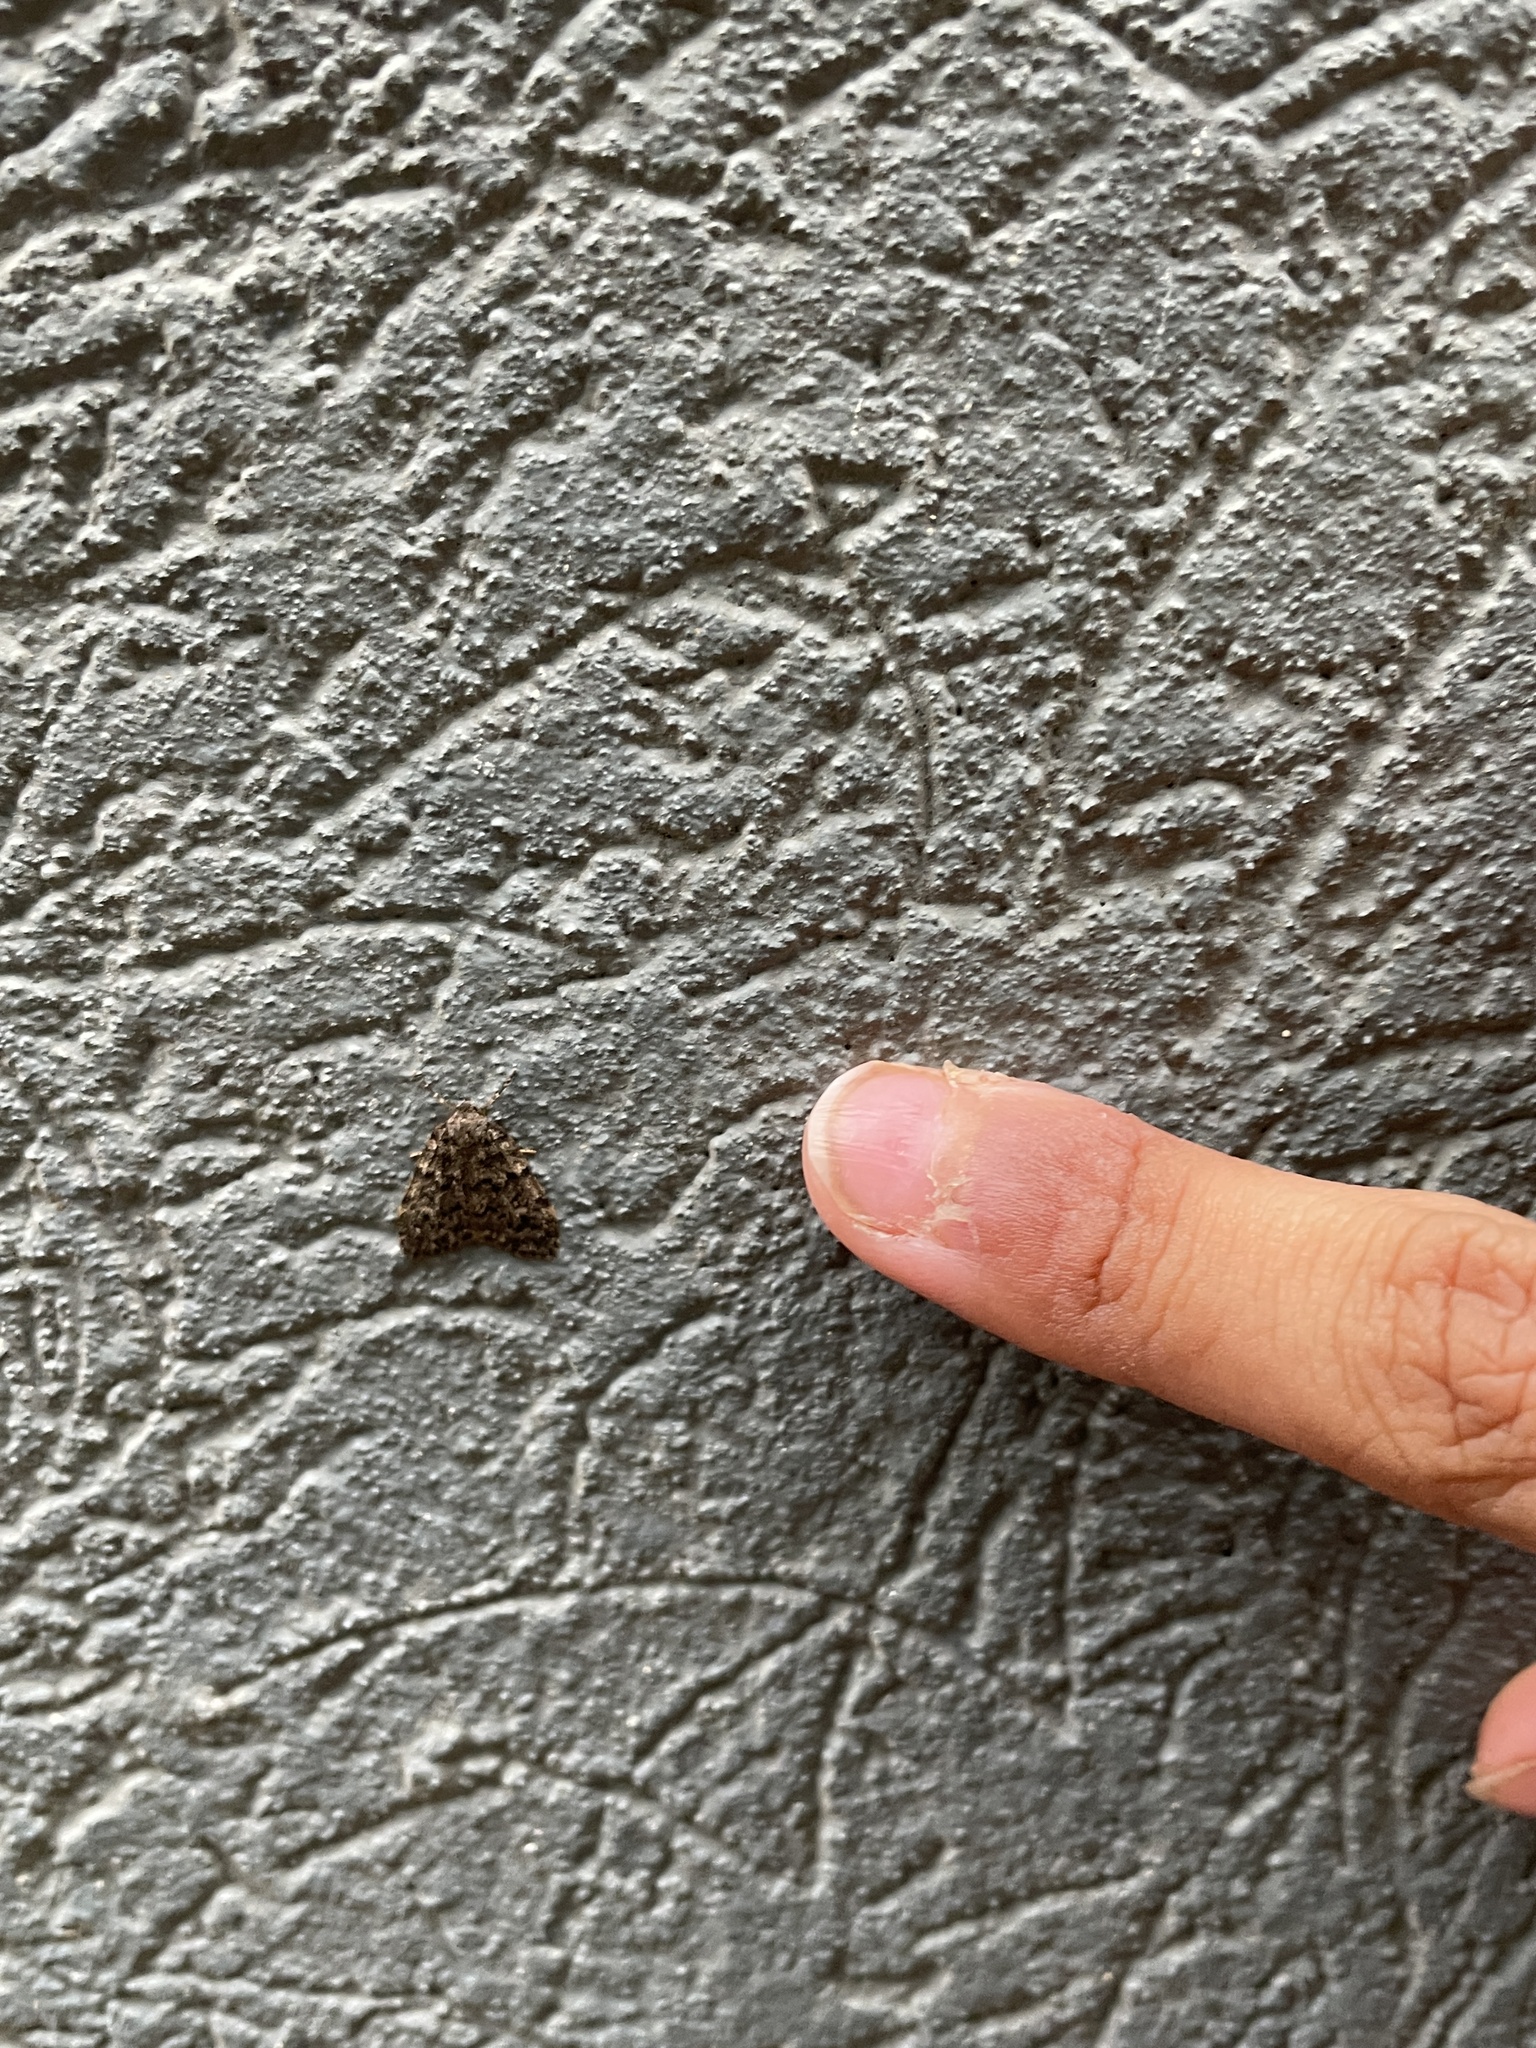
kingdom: Animalia
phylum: Arthropoda
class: Insecta
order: Lepidoptera
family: Erebidae
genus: Halone
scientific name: Halone consolatrix
